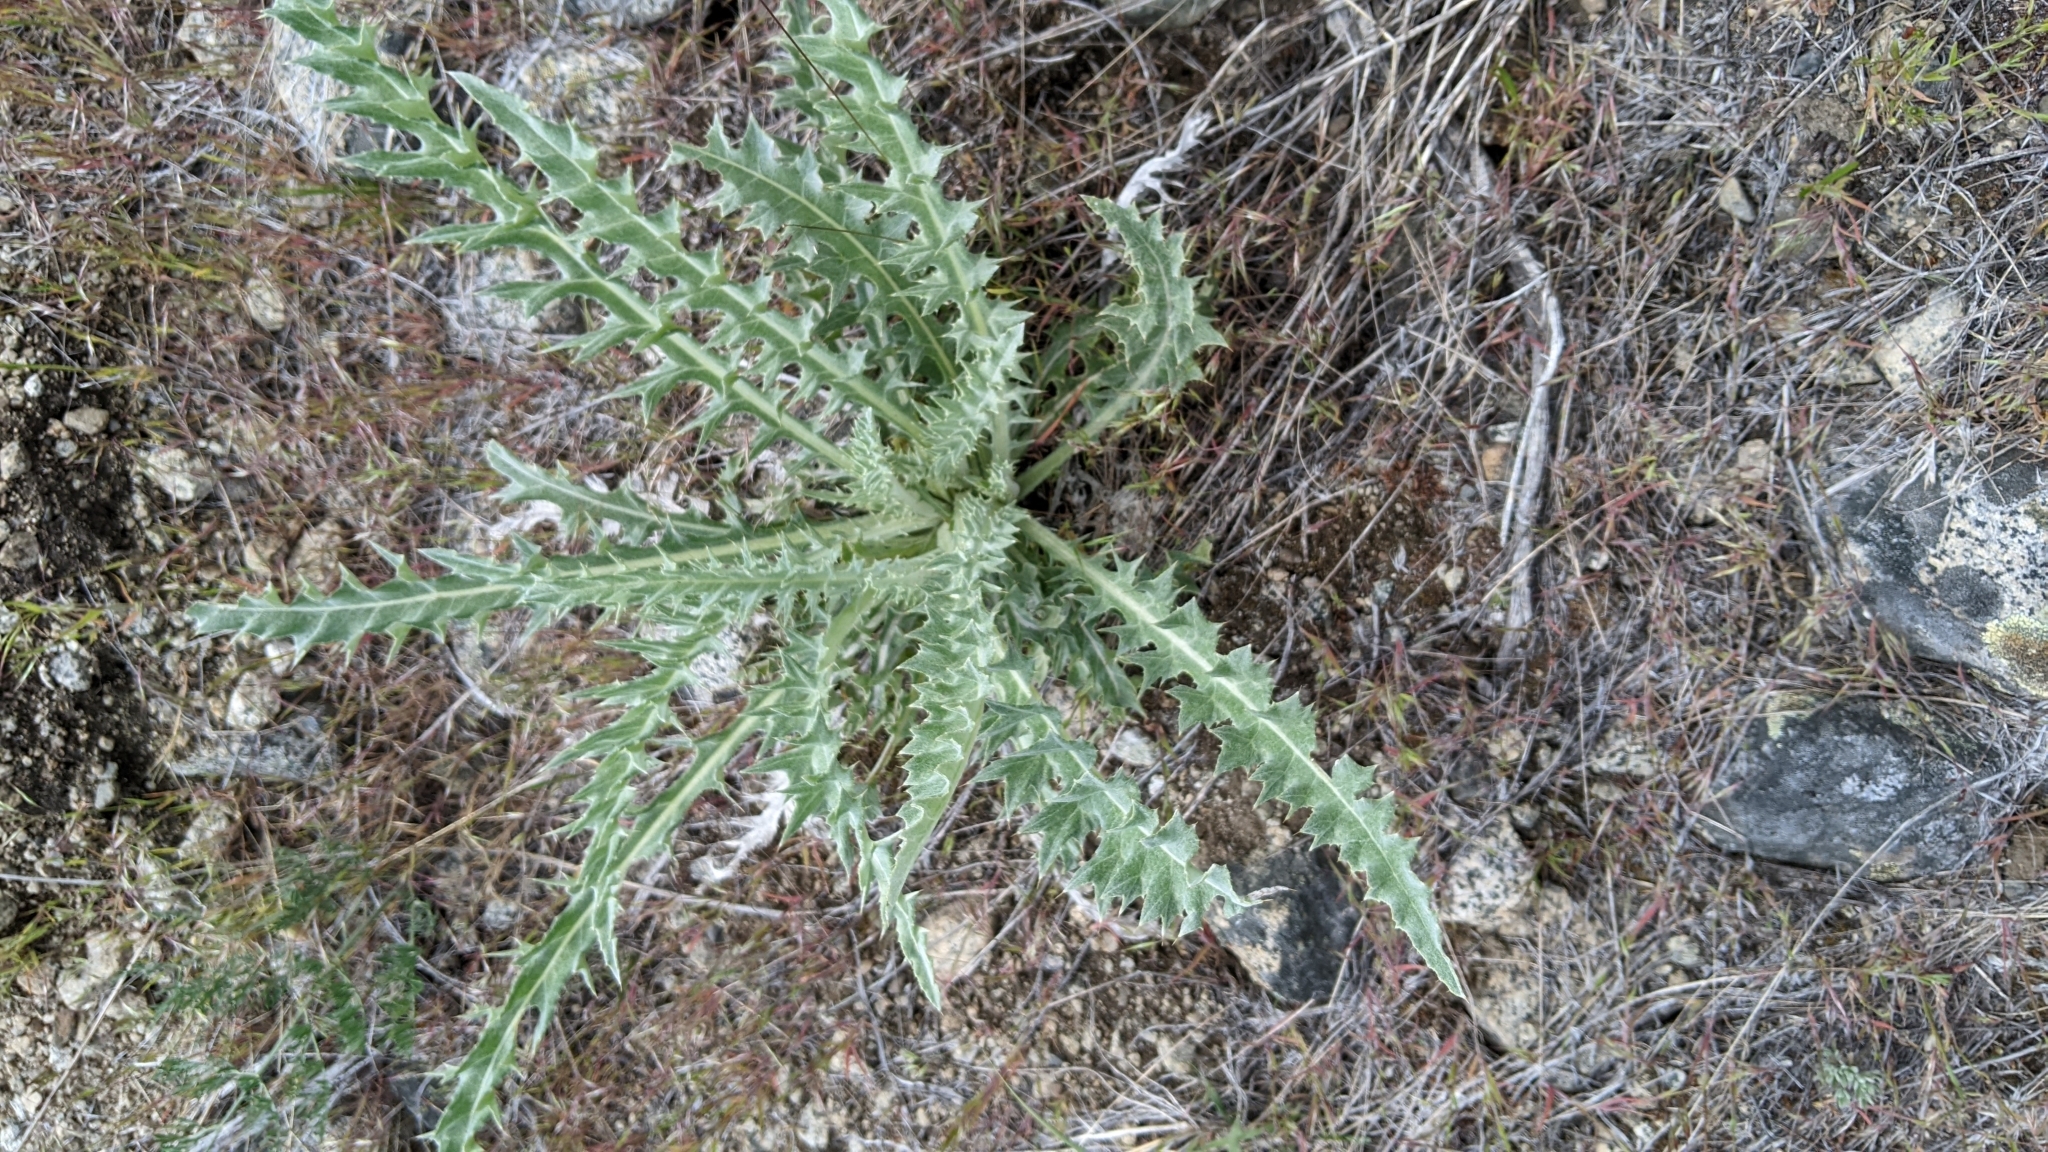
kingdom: Plantae
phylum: Tracheophyta
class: Magnoliopsida
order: Asterales
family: Asteraceae
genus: Cirsium
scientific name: Cirsium undulatum
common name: Pasture thistle
